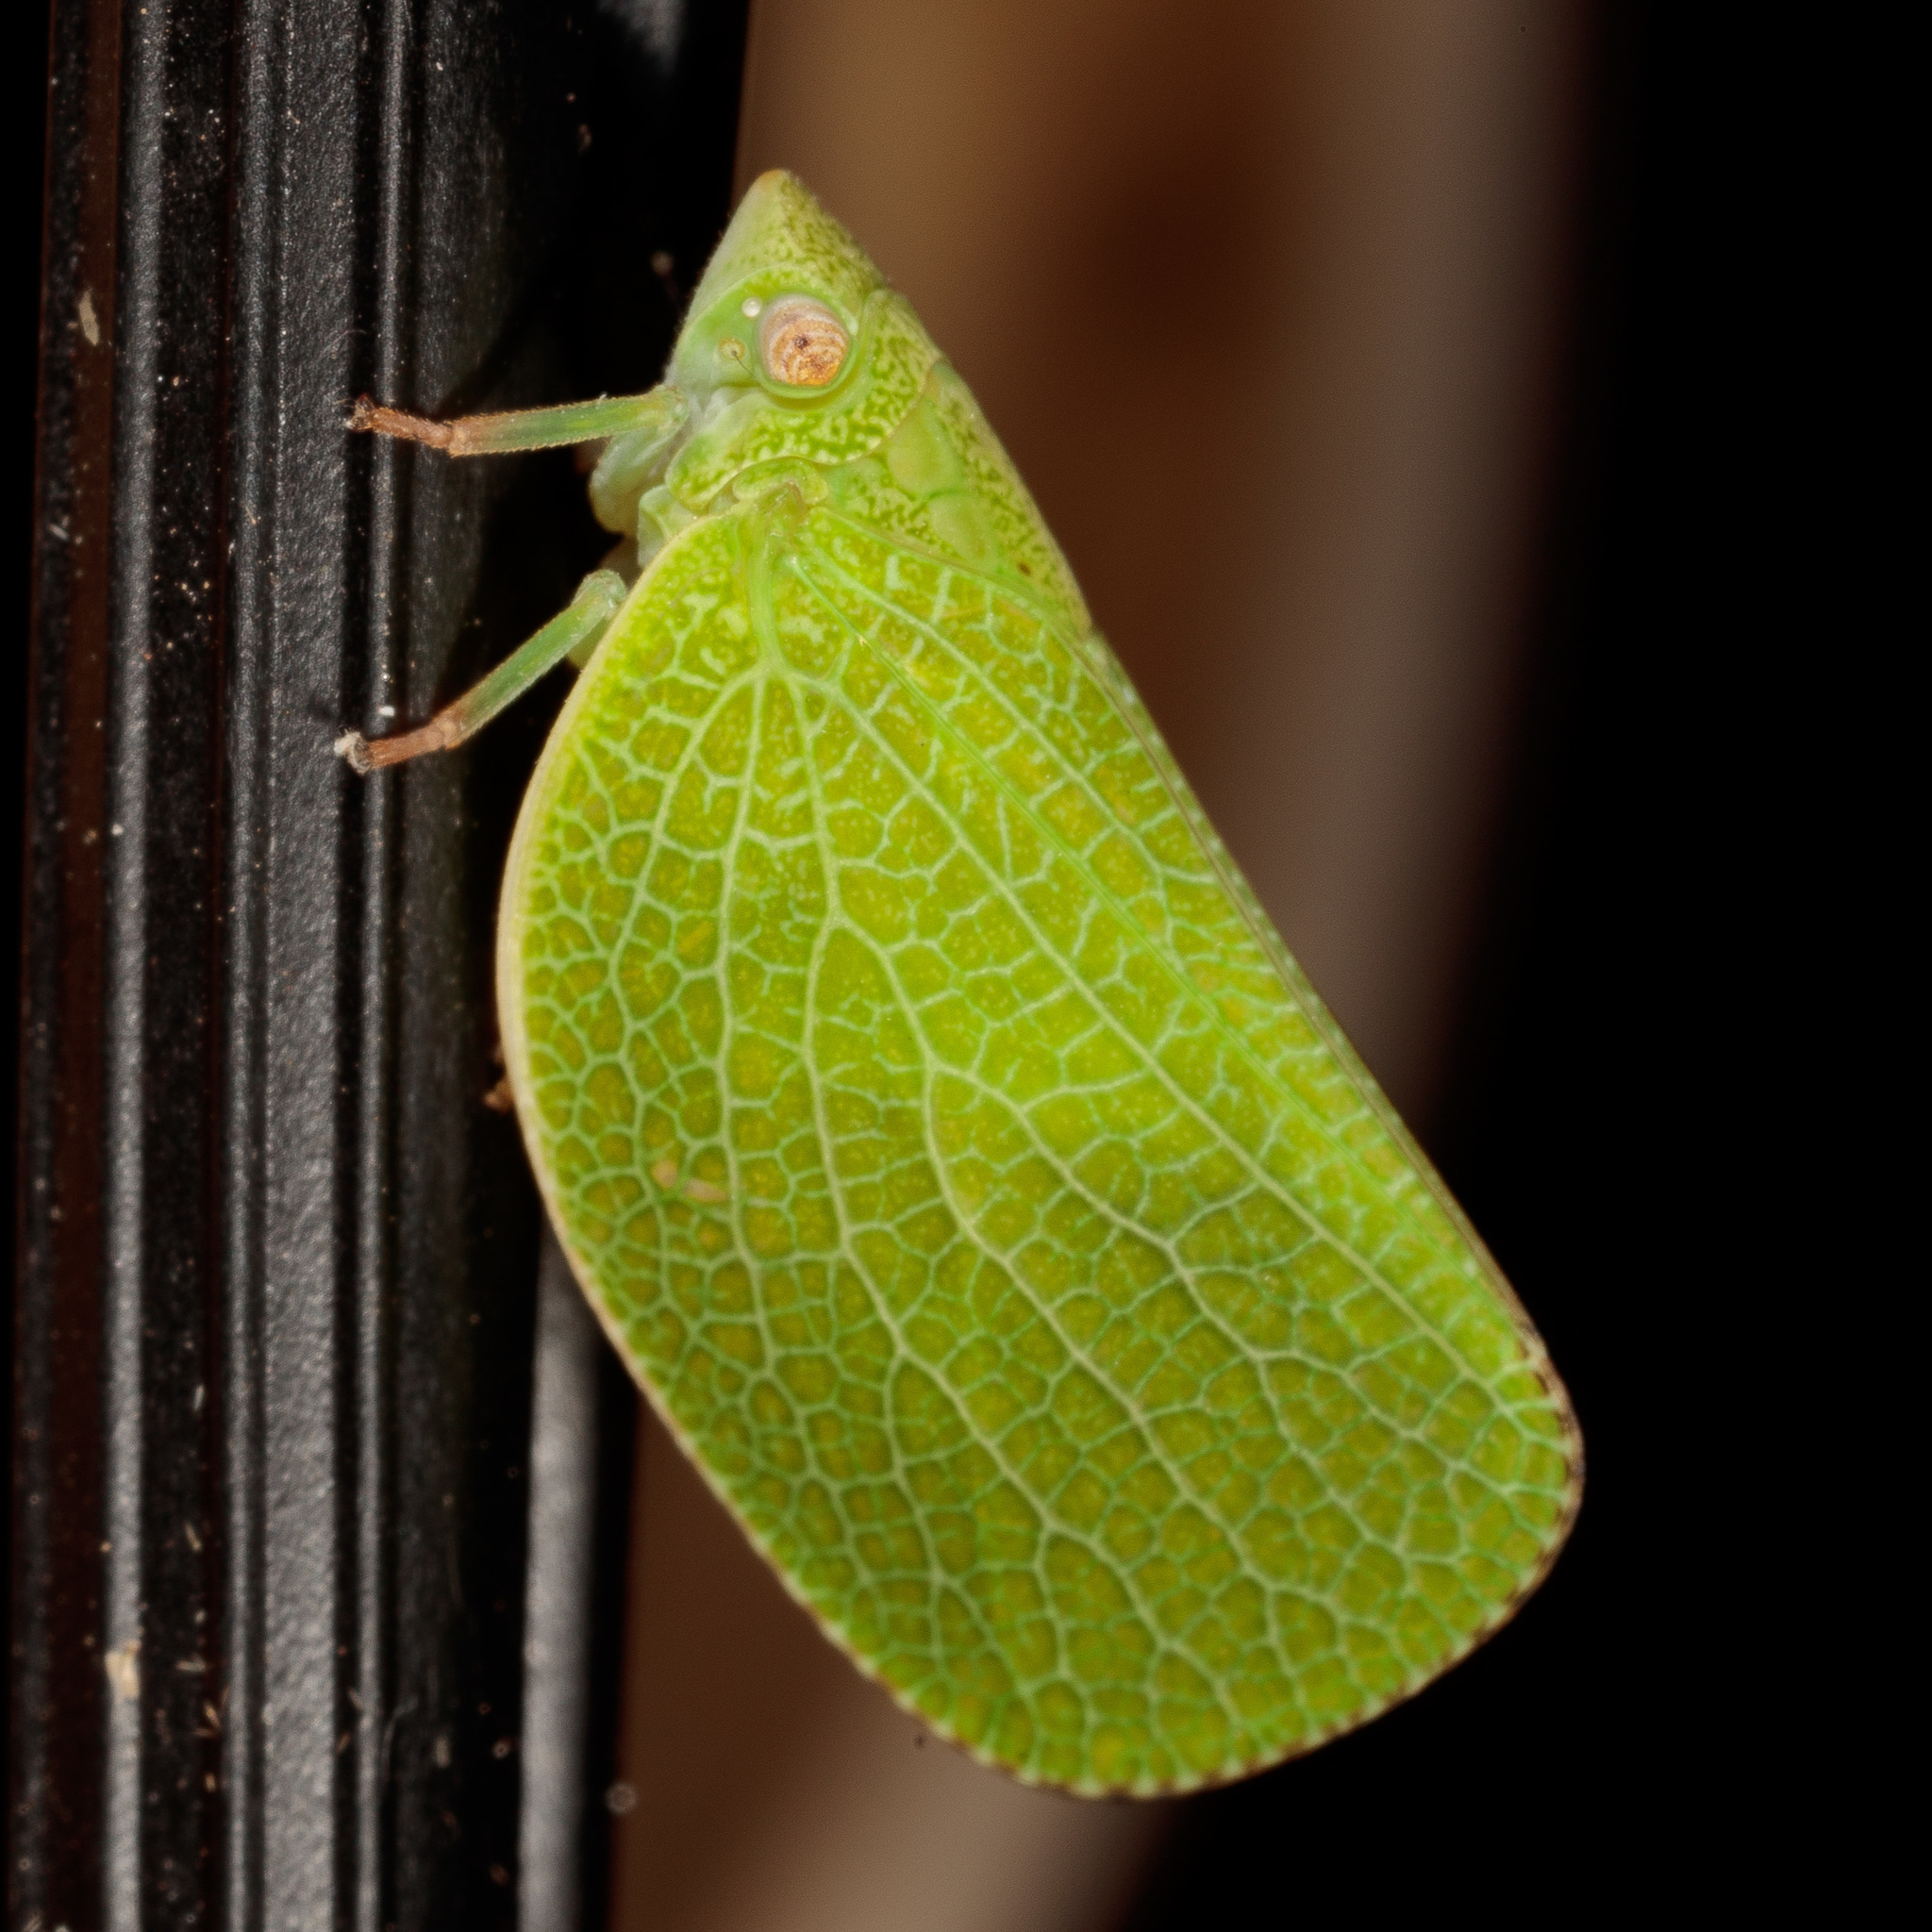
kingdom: Animalia
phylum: Arthropoda
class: Insecta
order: Hemiptera
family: Acanaloniidae
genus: Acanalonia
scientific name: Acanalonia conica
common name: Green cone-headed planthopper
